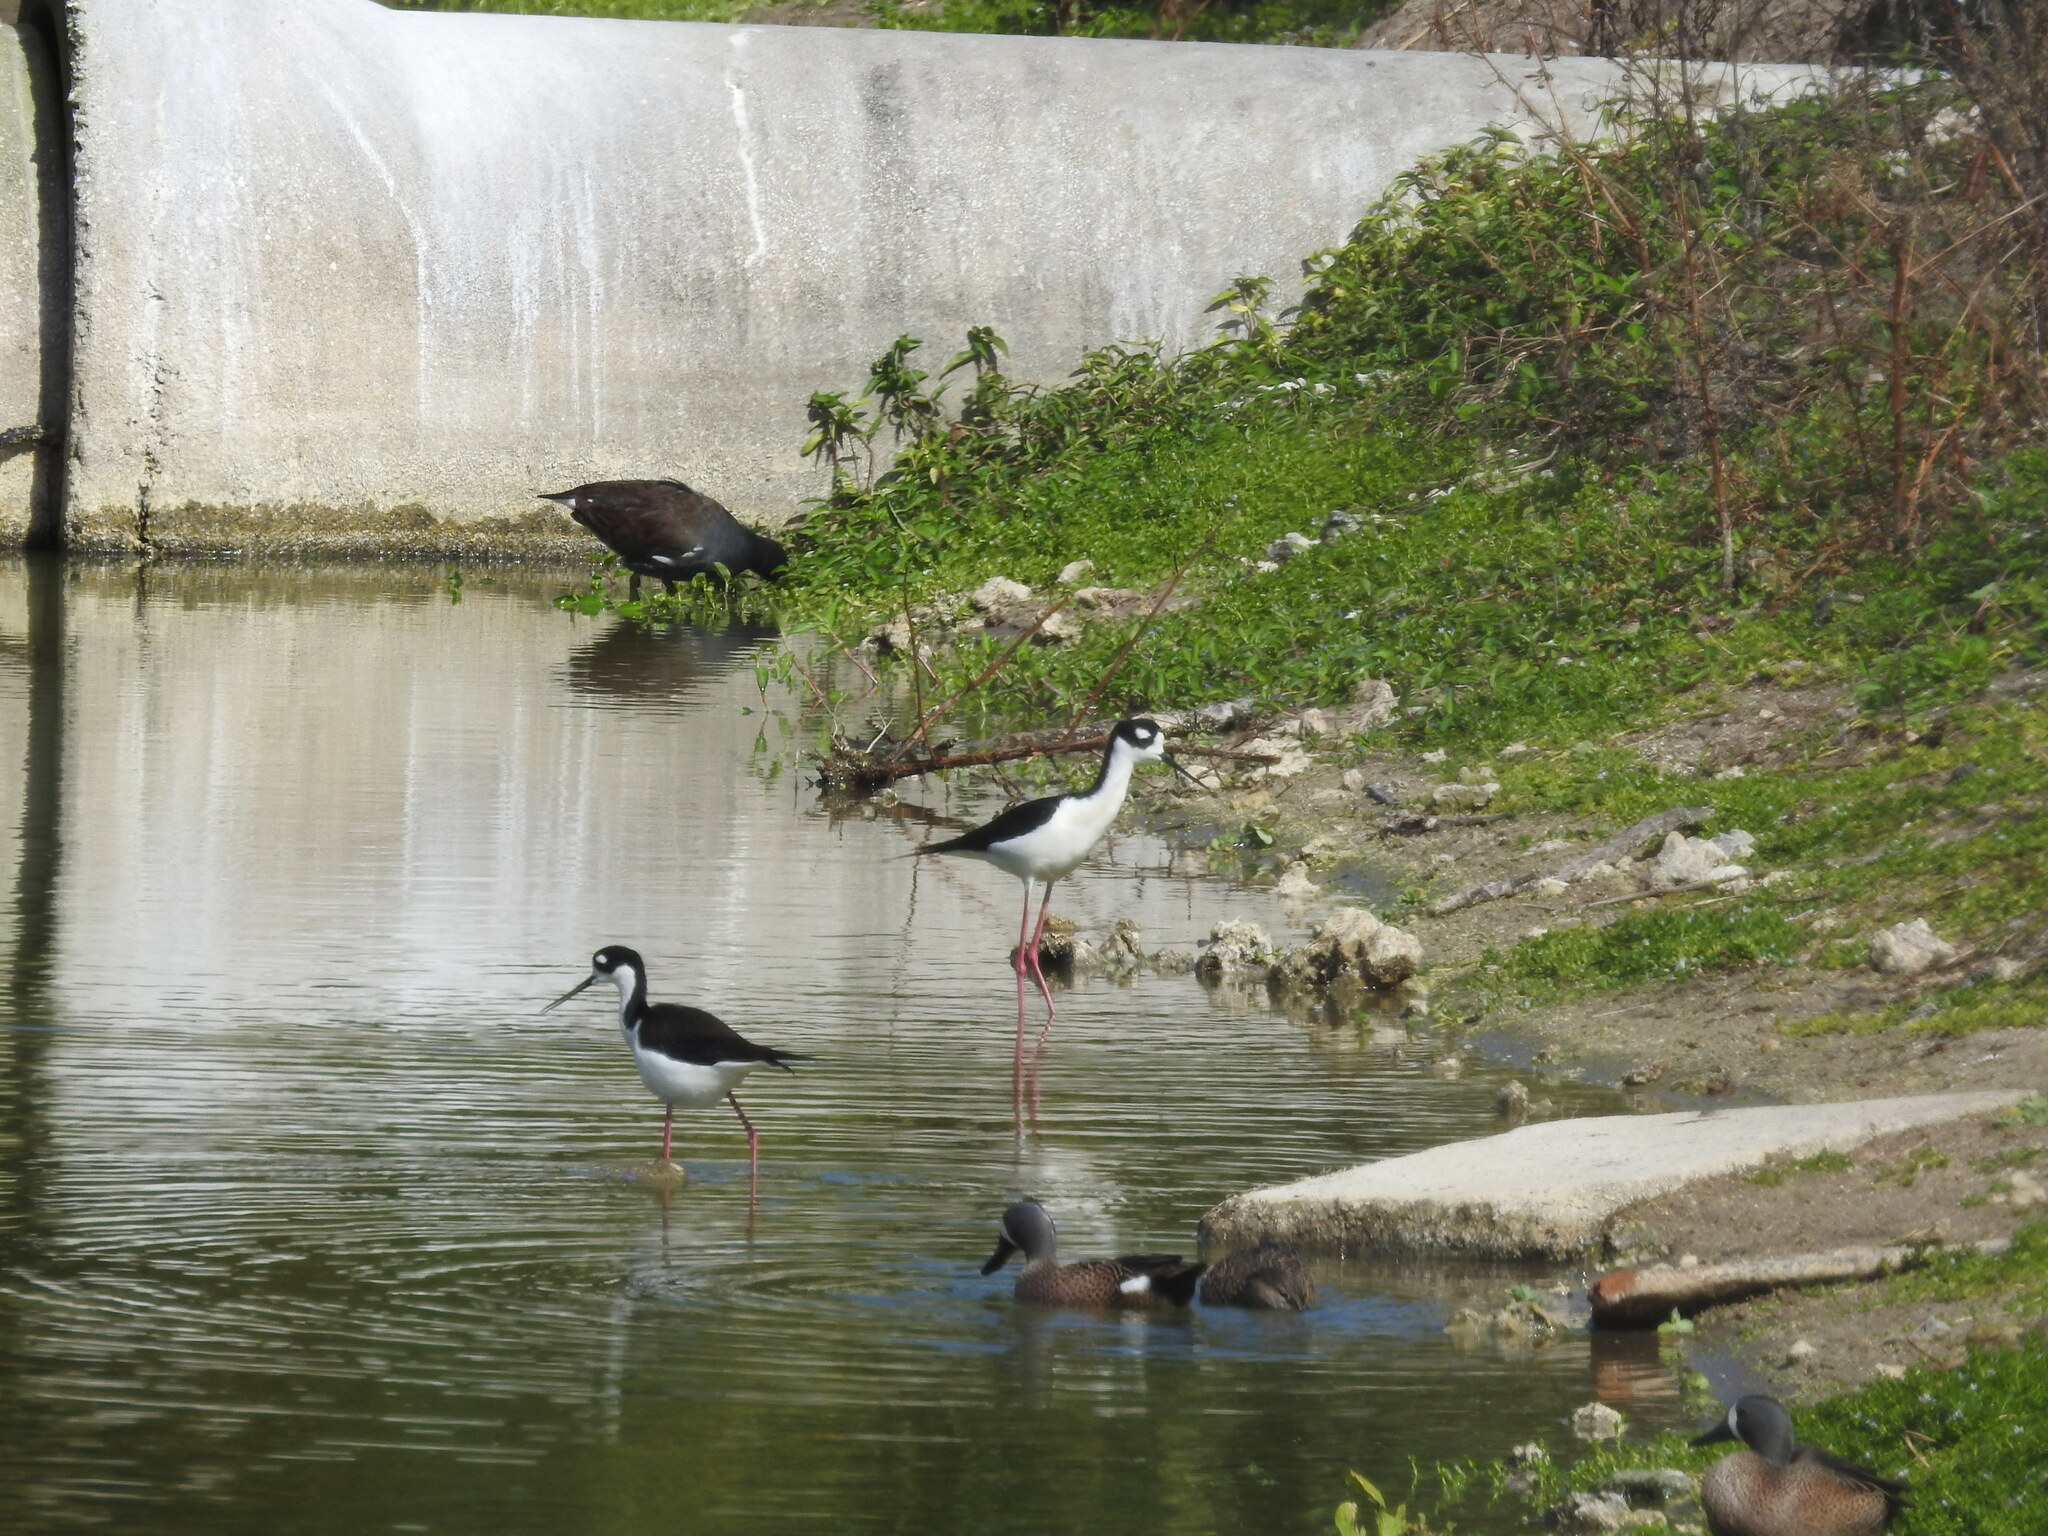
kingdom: Animalia
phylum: Chordata
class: Aves
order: Charadriiformes
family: Recurvirostridae
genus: Himantopus
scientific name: Himantopus mexicanus
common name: Black-necked stilt
